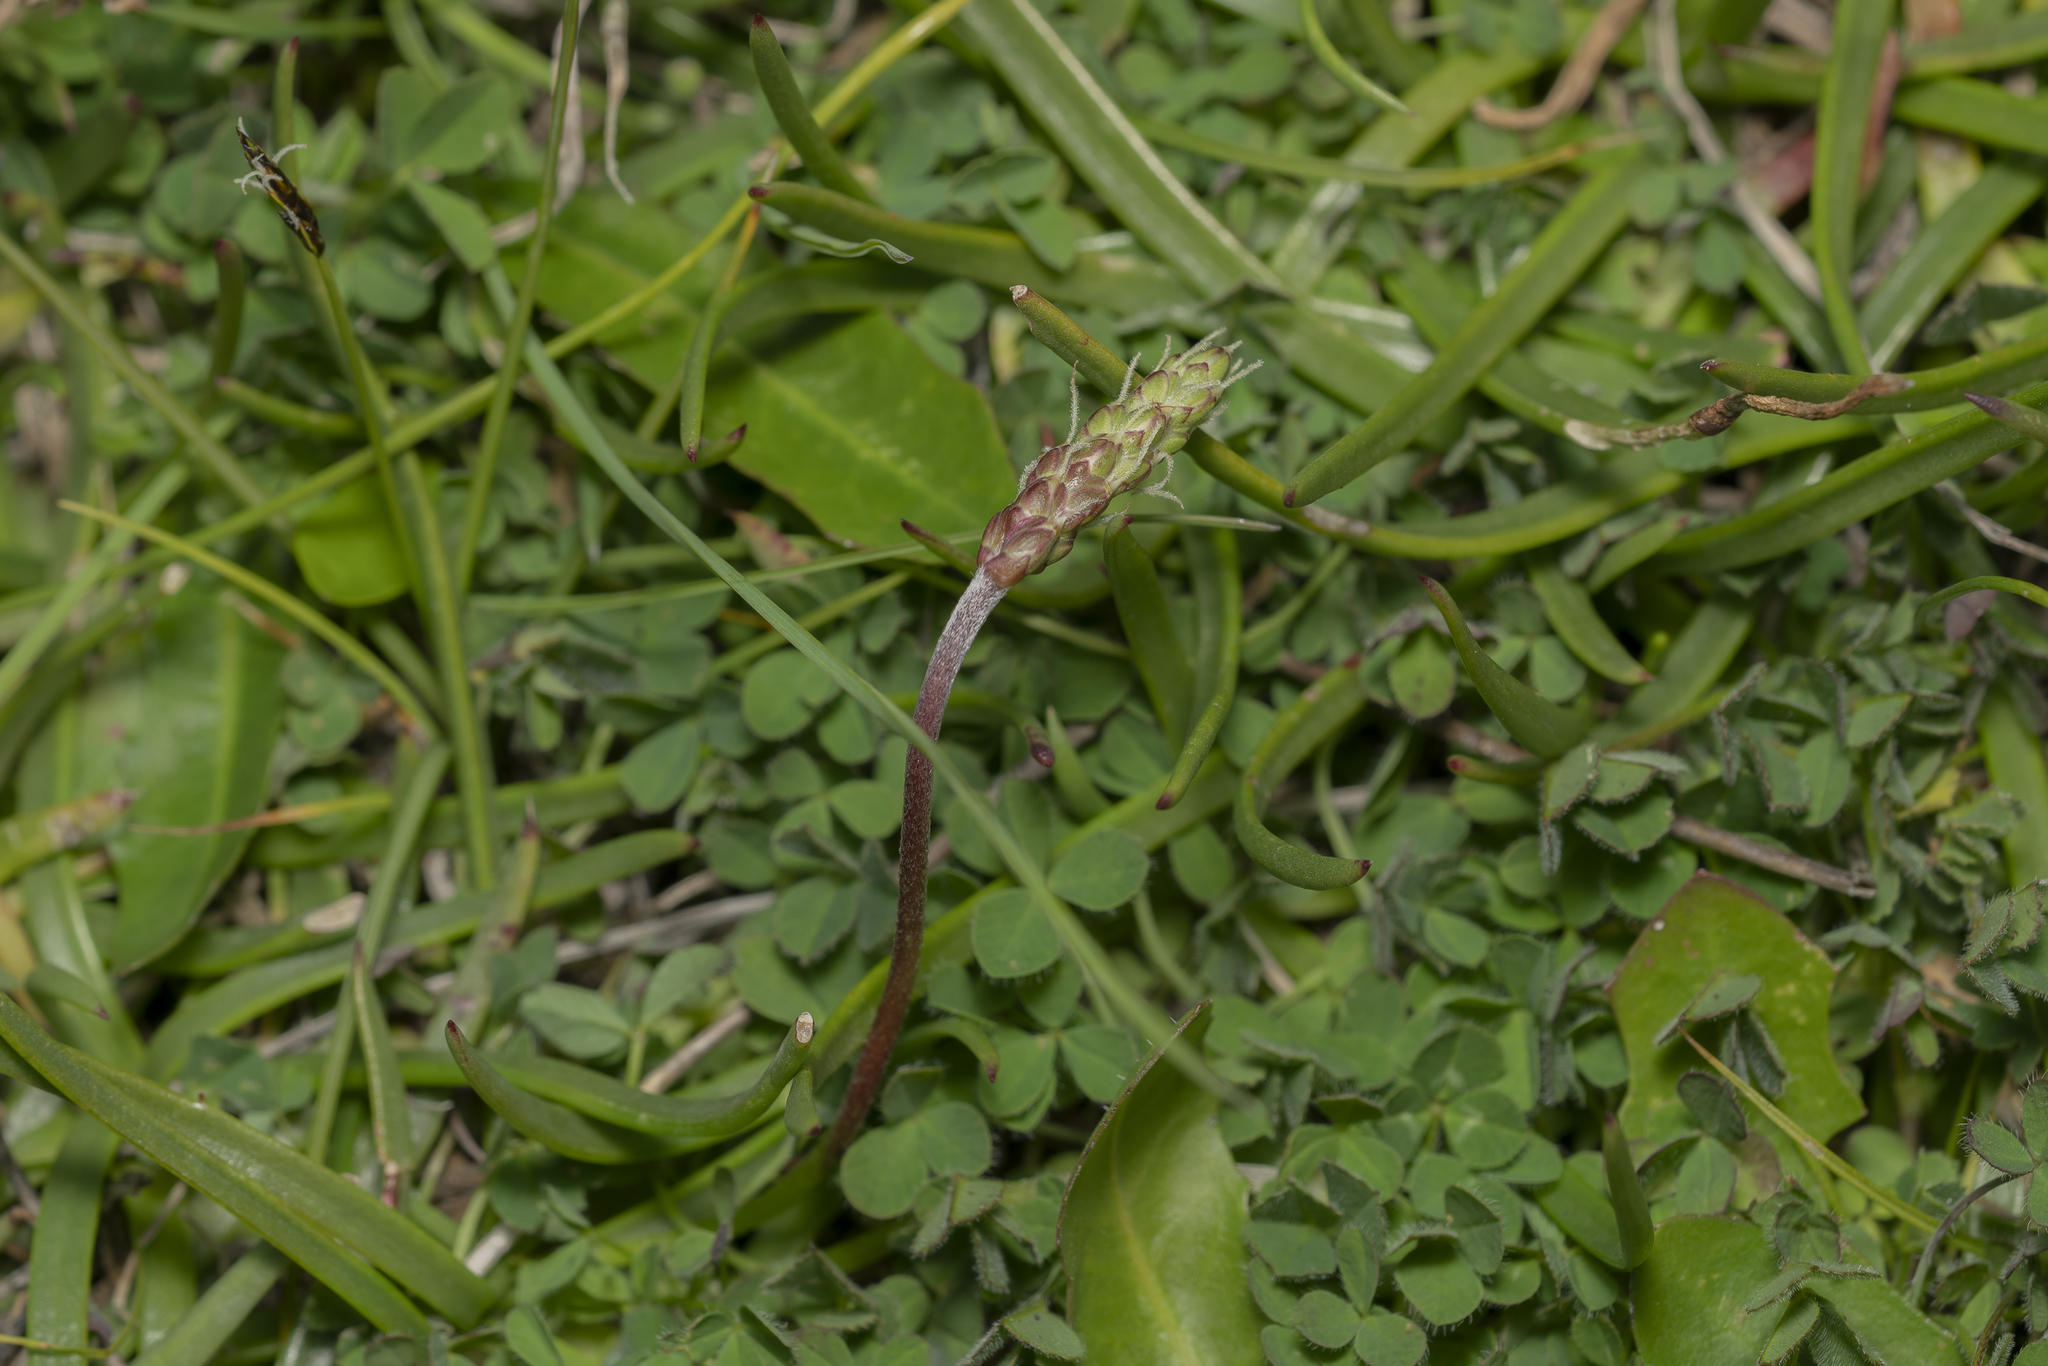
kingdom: Plantae
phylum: Tracheophyta
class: Magnoliopsida
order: Lamiales
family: Plantaginaceae
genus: Plantago
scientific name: Plantago crassifolia
